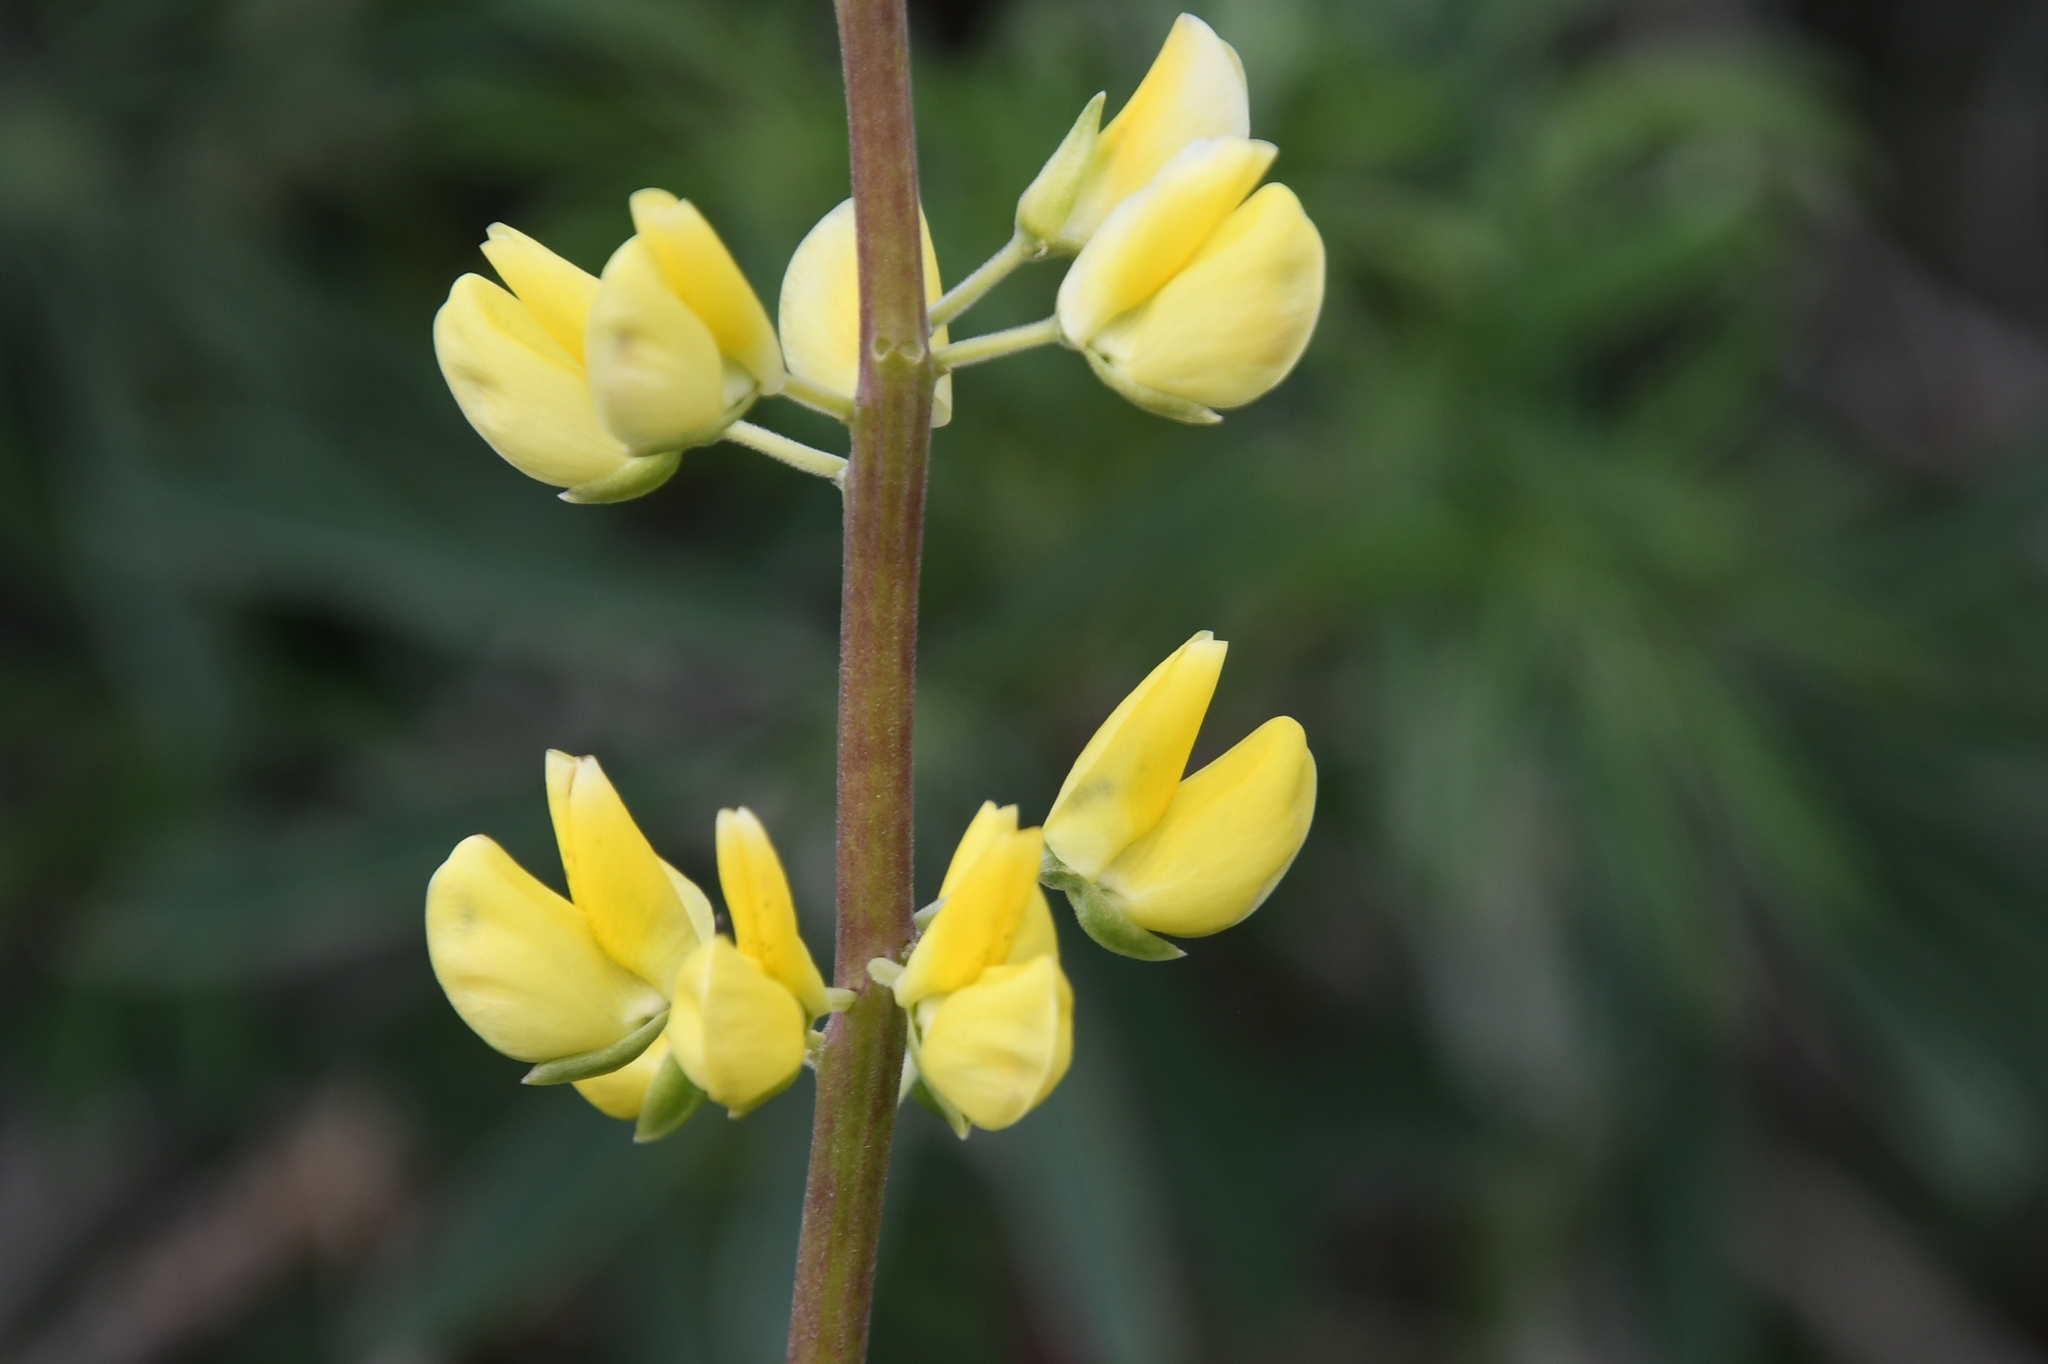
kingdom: Plantae
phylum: Tracheophyta
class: Magnoliopsida
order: Fabales
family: Fabaceae
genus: Lupinus
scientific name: Lupinus arboreus
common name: Yellow bush lupine
